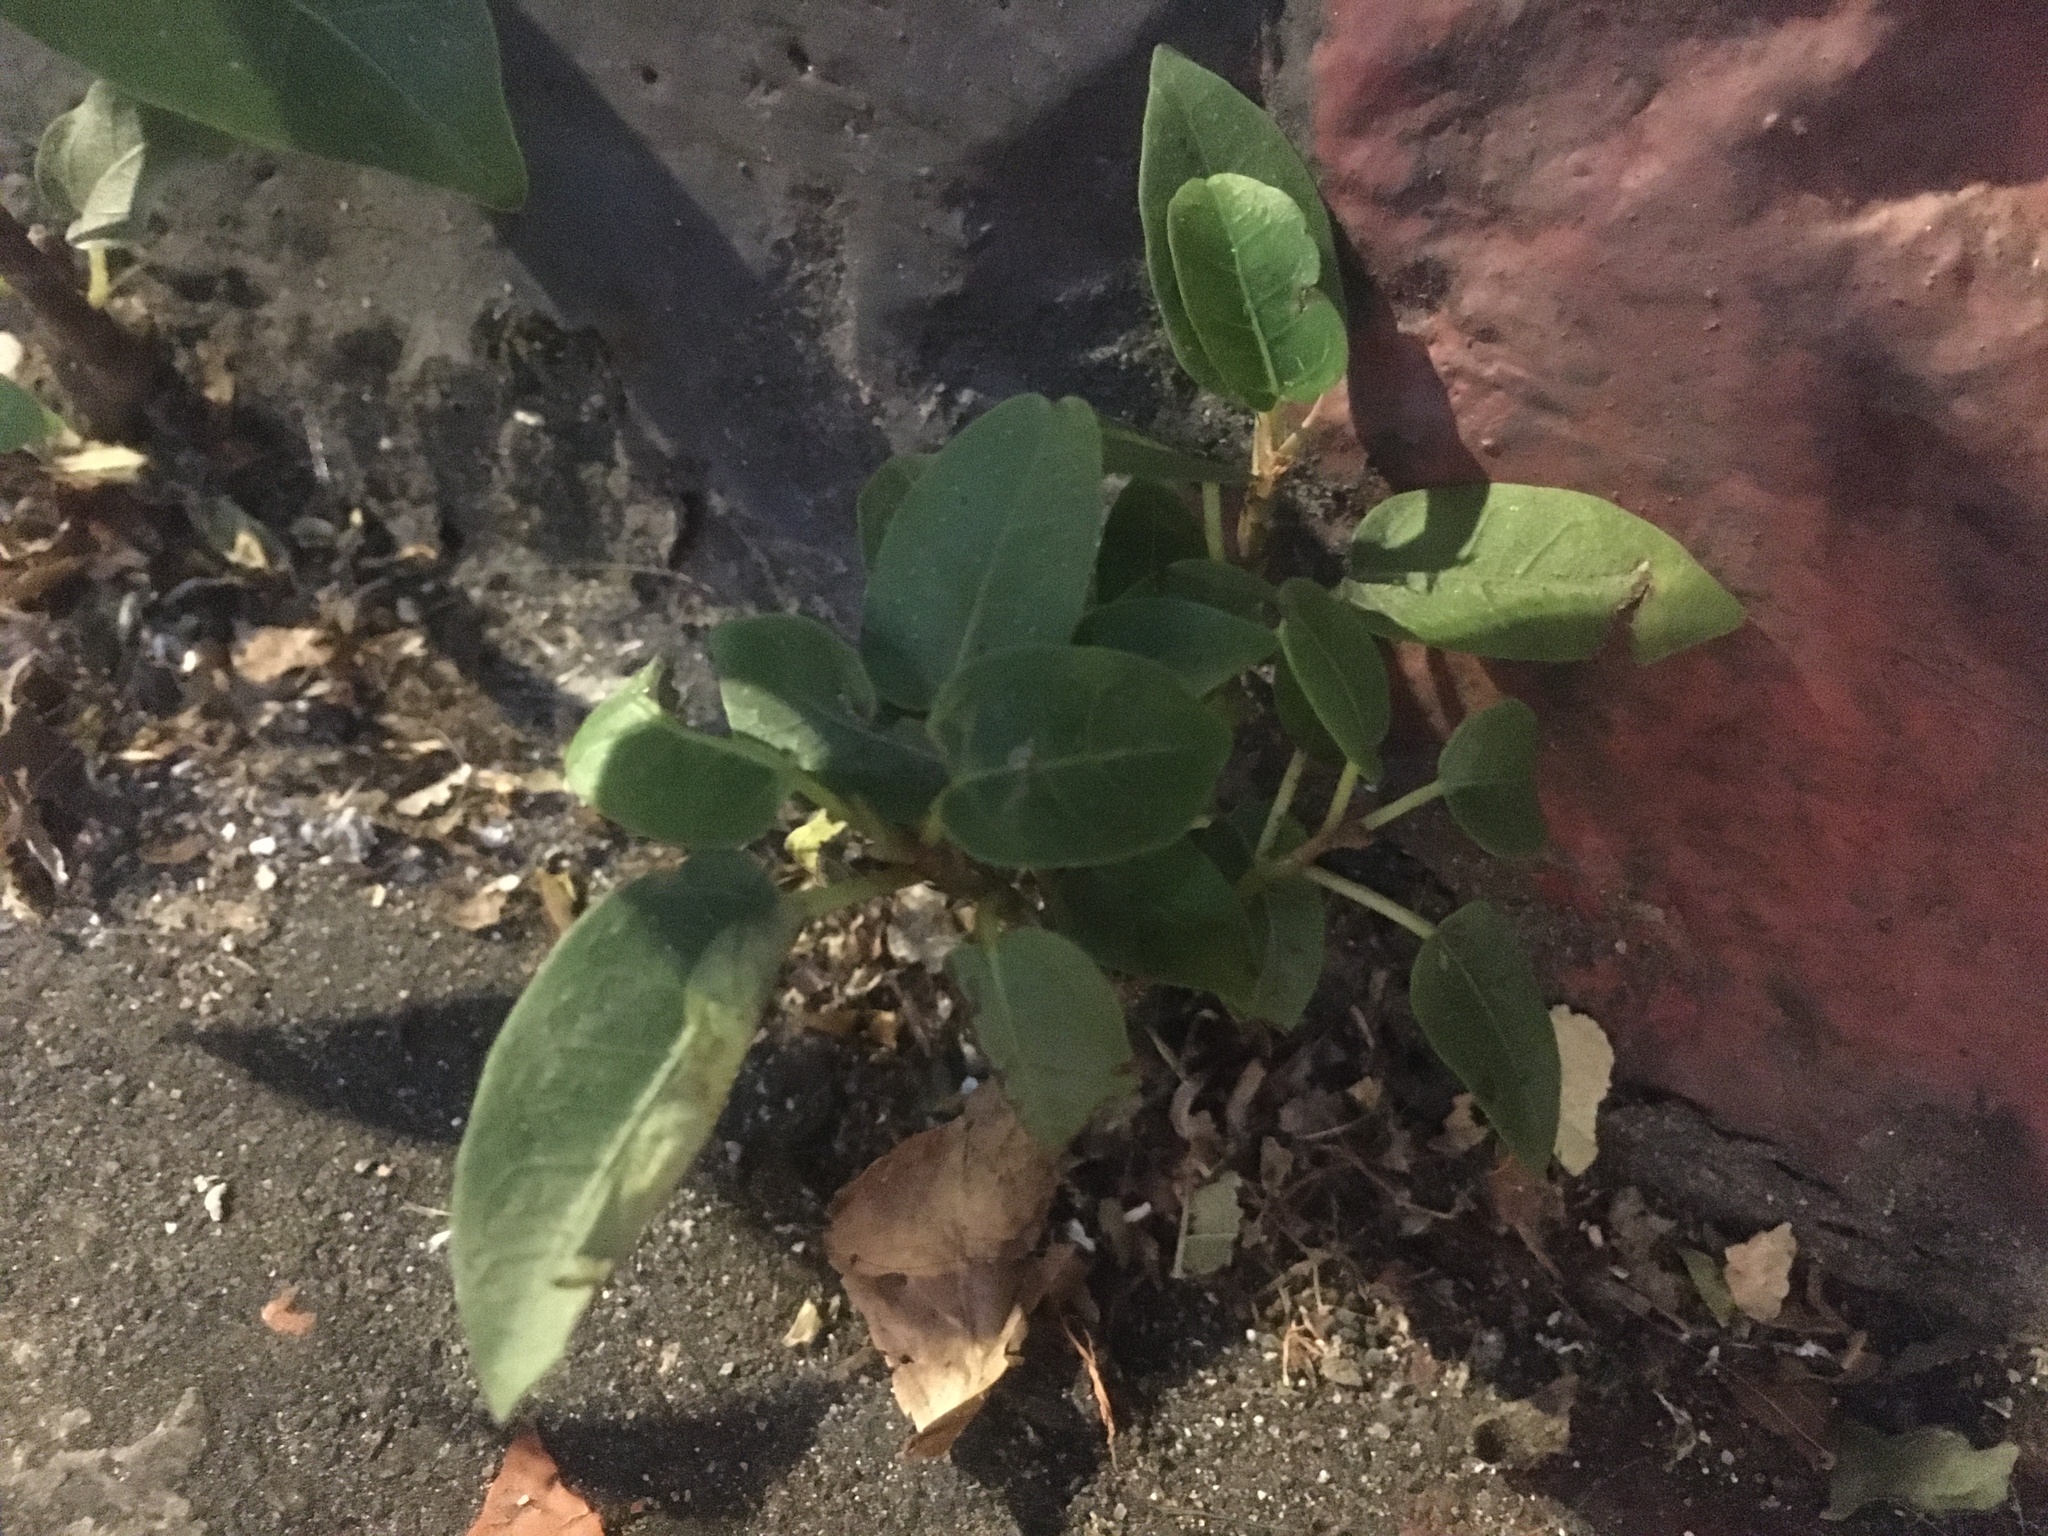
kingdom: Plantae
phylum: Tracheophyta
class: Magnoliopsida
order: Rosales
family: Moraceae
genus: Ficus
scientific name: Ficus subpisocarpa
